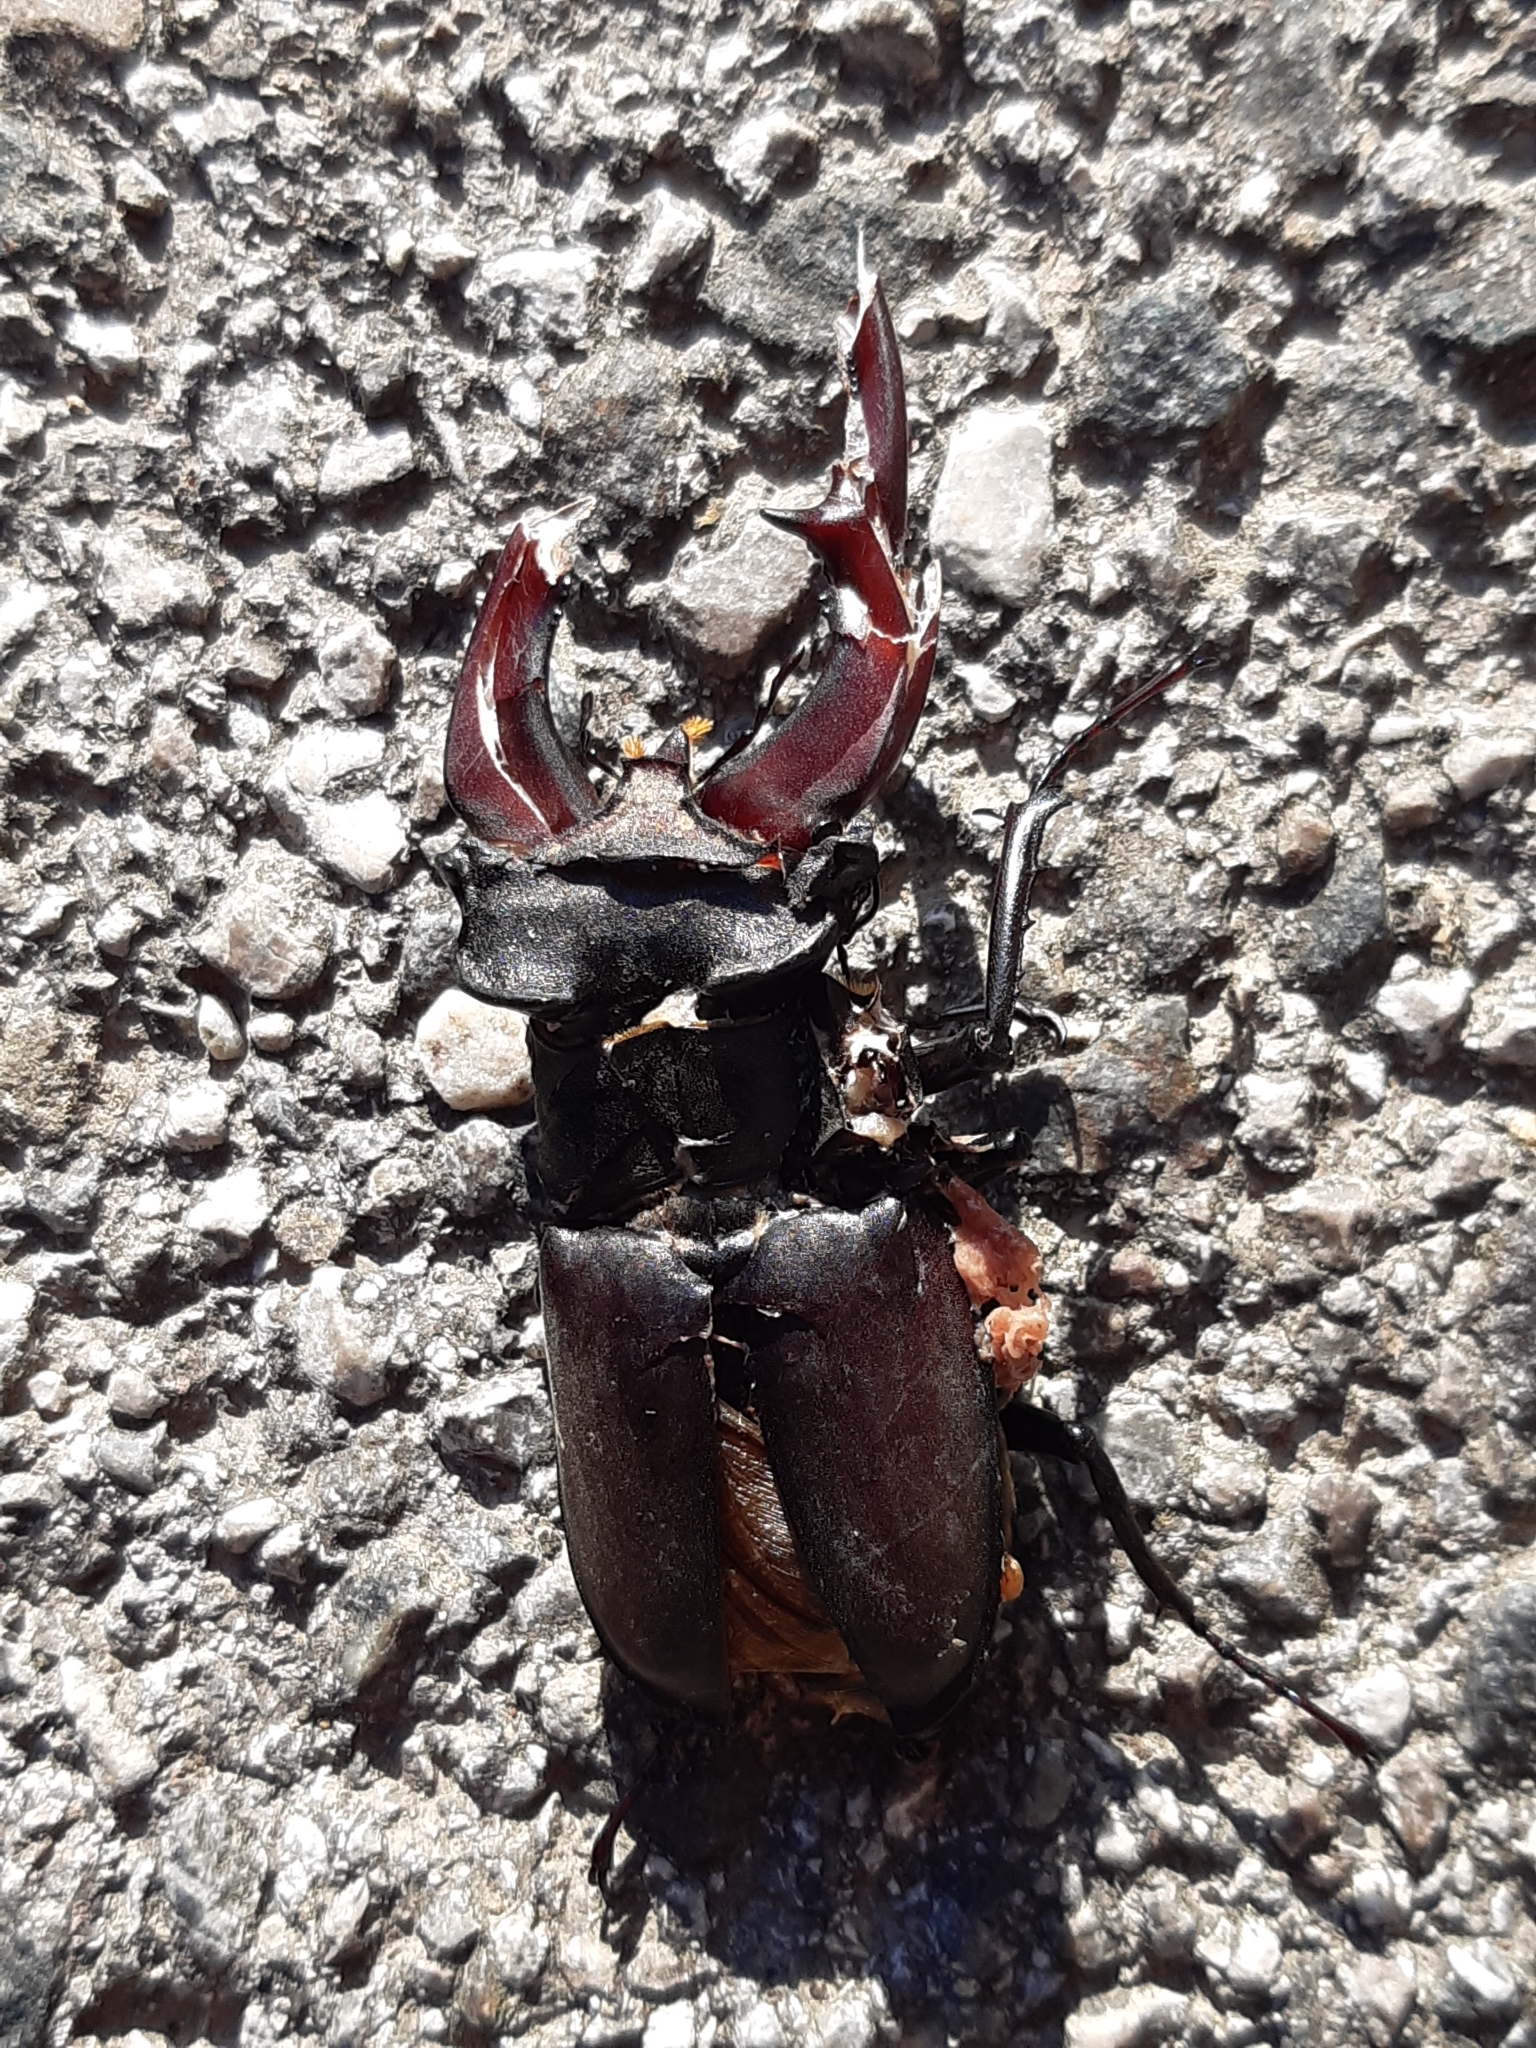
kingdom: Animalia
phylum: Arthropoda
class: Insecta
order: Coleoptera
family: Lucanidae
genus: Lucanus
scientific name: Lucanus cervus
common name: Stag beetle
